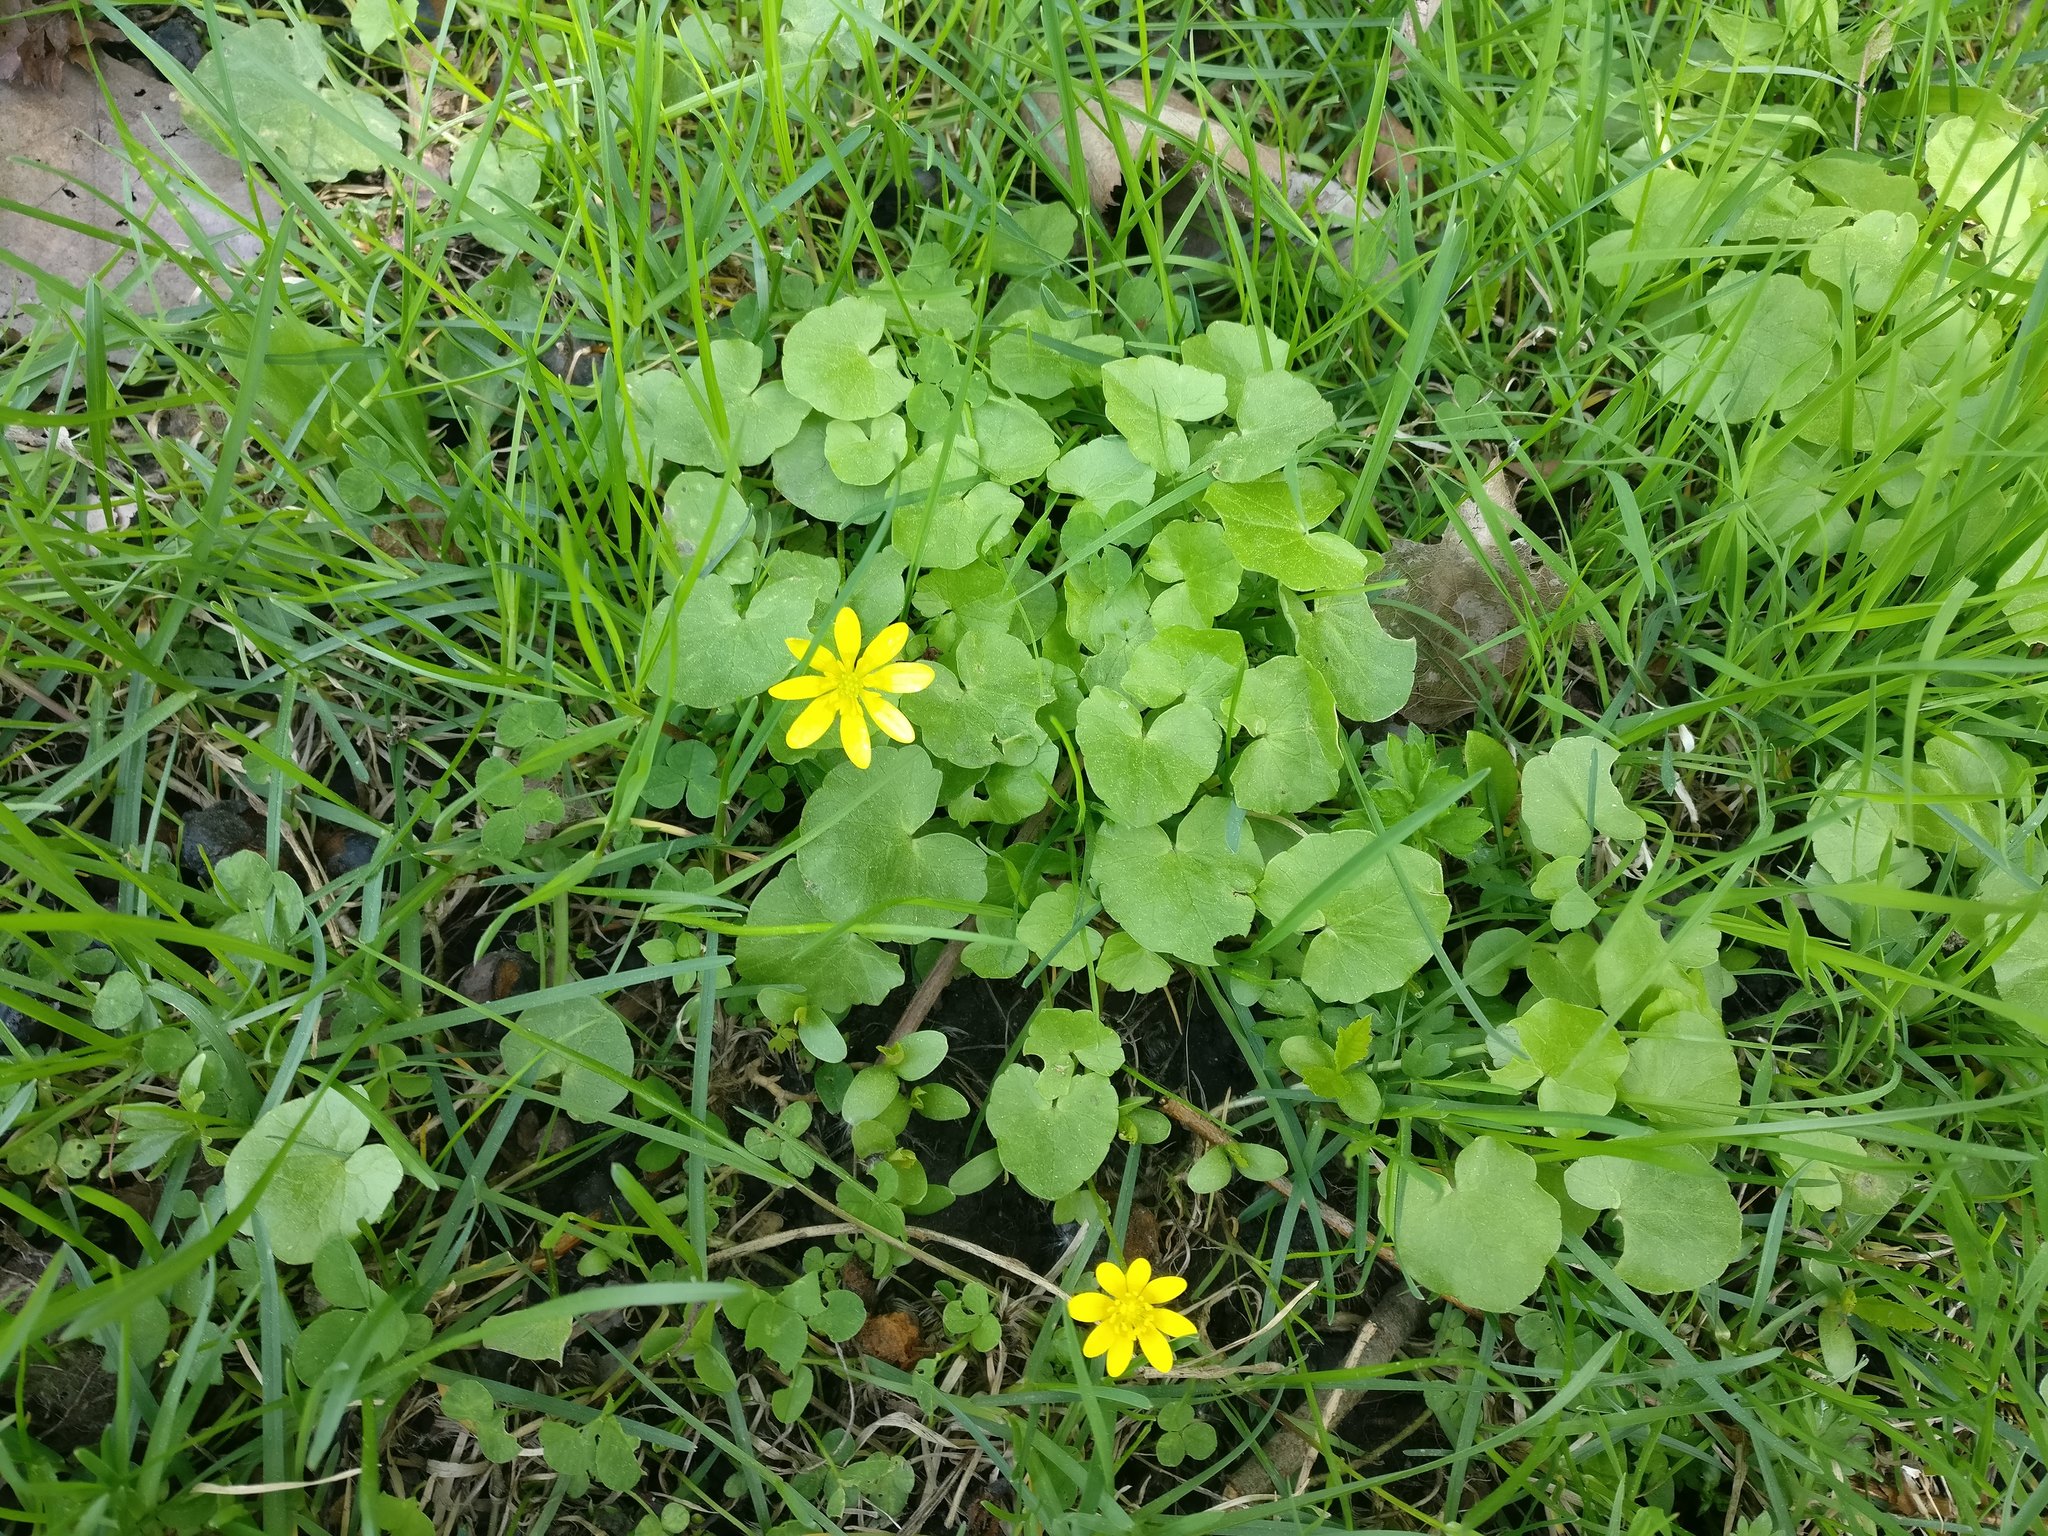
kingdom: Plantae
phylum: Tracheophyta
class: Magnoliopsida
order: Ranunculales
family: Ranunculaceae
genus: Ficaria
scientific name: Ficaria verna
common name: Lesser celandine
